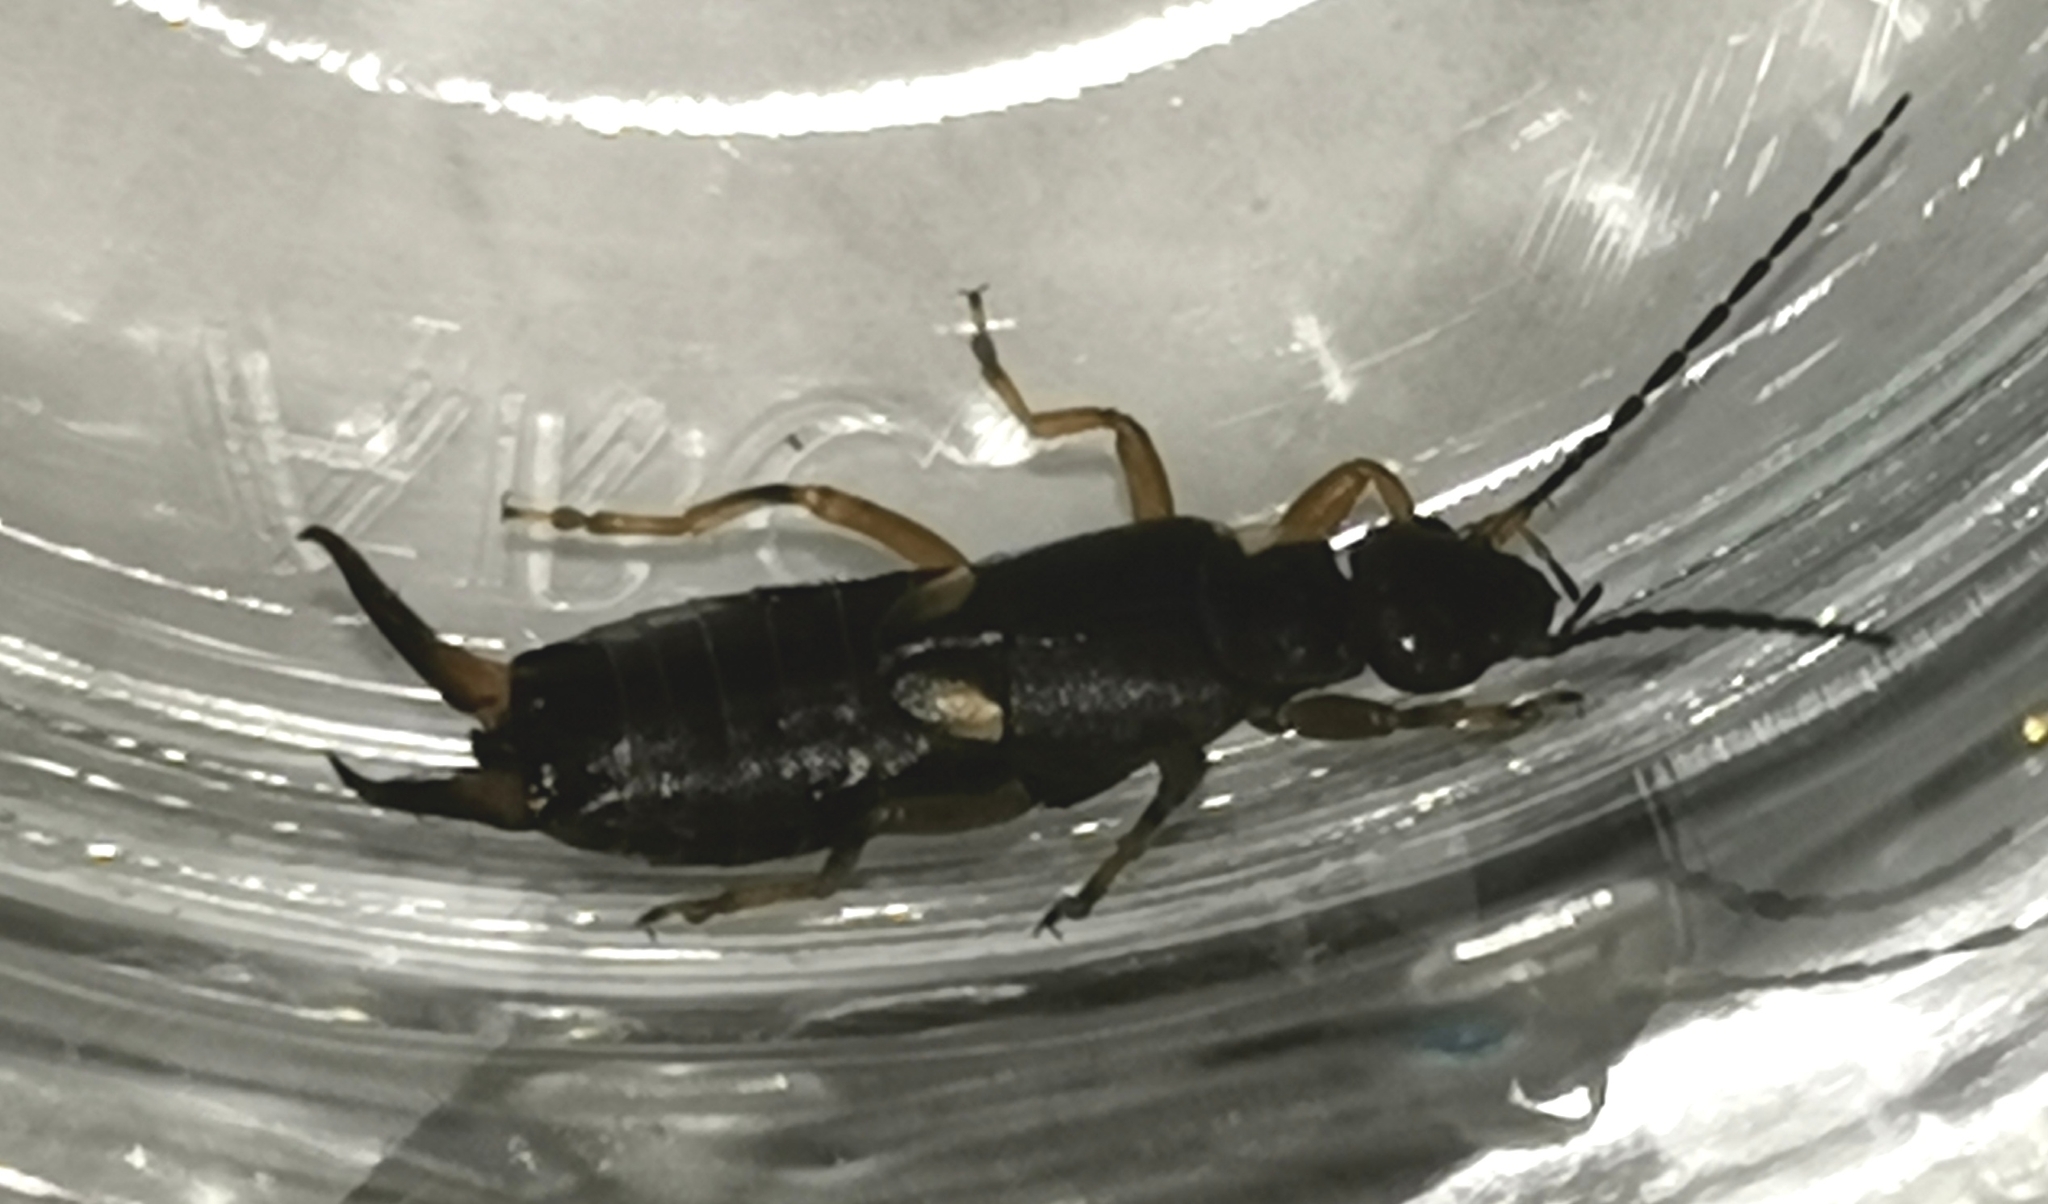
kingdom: Animalia
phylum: Arthropoda
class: Insecta
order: Dermaptera
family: Forficulidae
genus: Forficula
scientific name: Forficula
